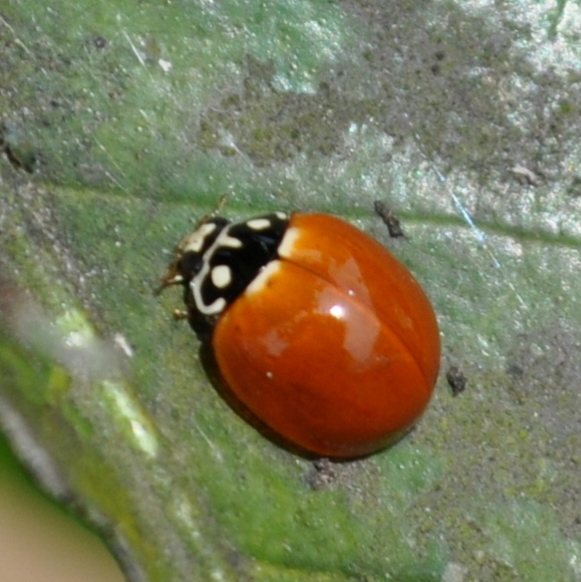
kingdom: Animalia
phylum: Arthropoda
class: Insecta
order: Coleoptera
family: Coccinellidae
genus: Cycloneda
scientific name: Cycloneda sanguinea
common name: Ladybird beetle
